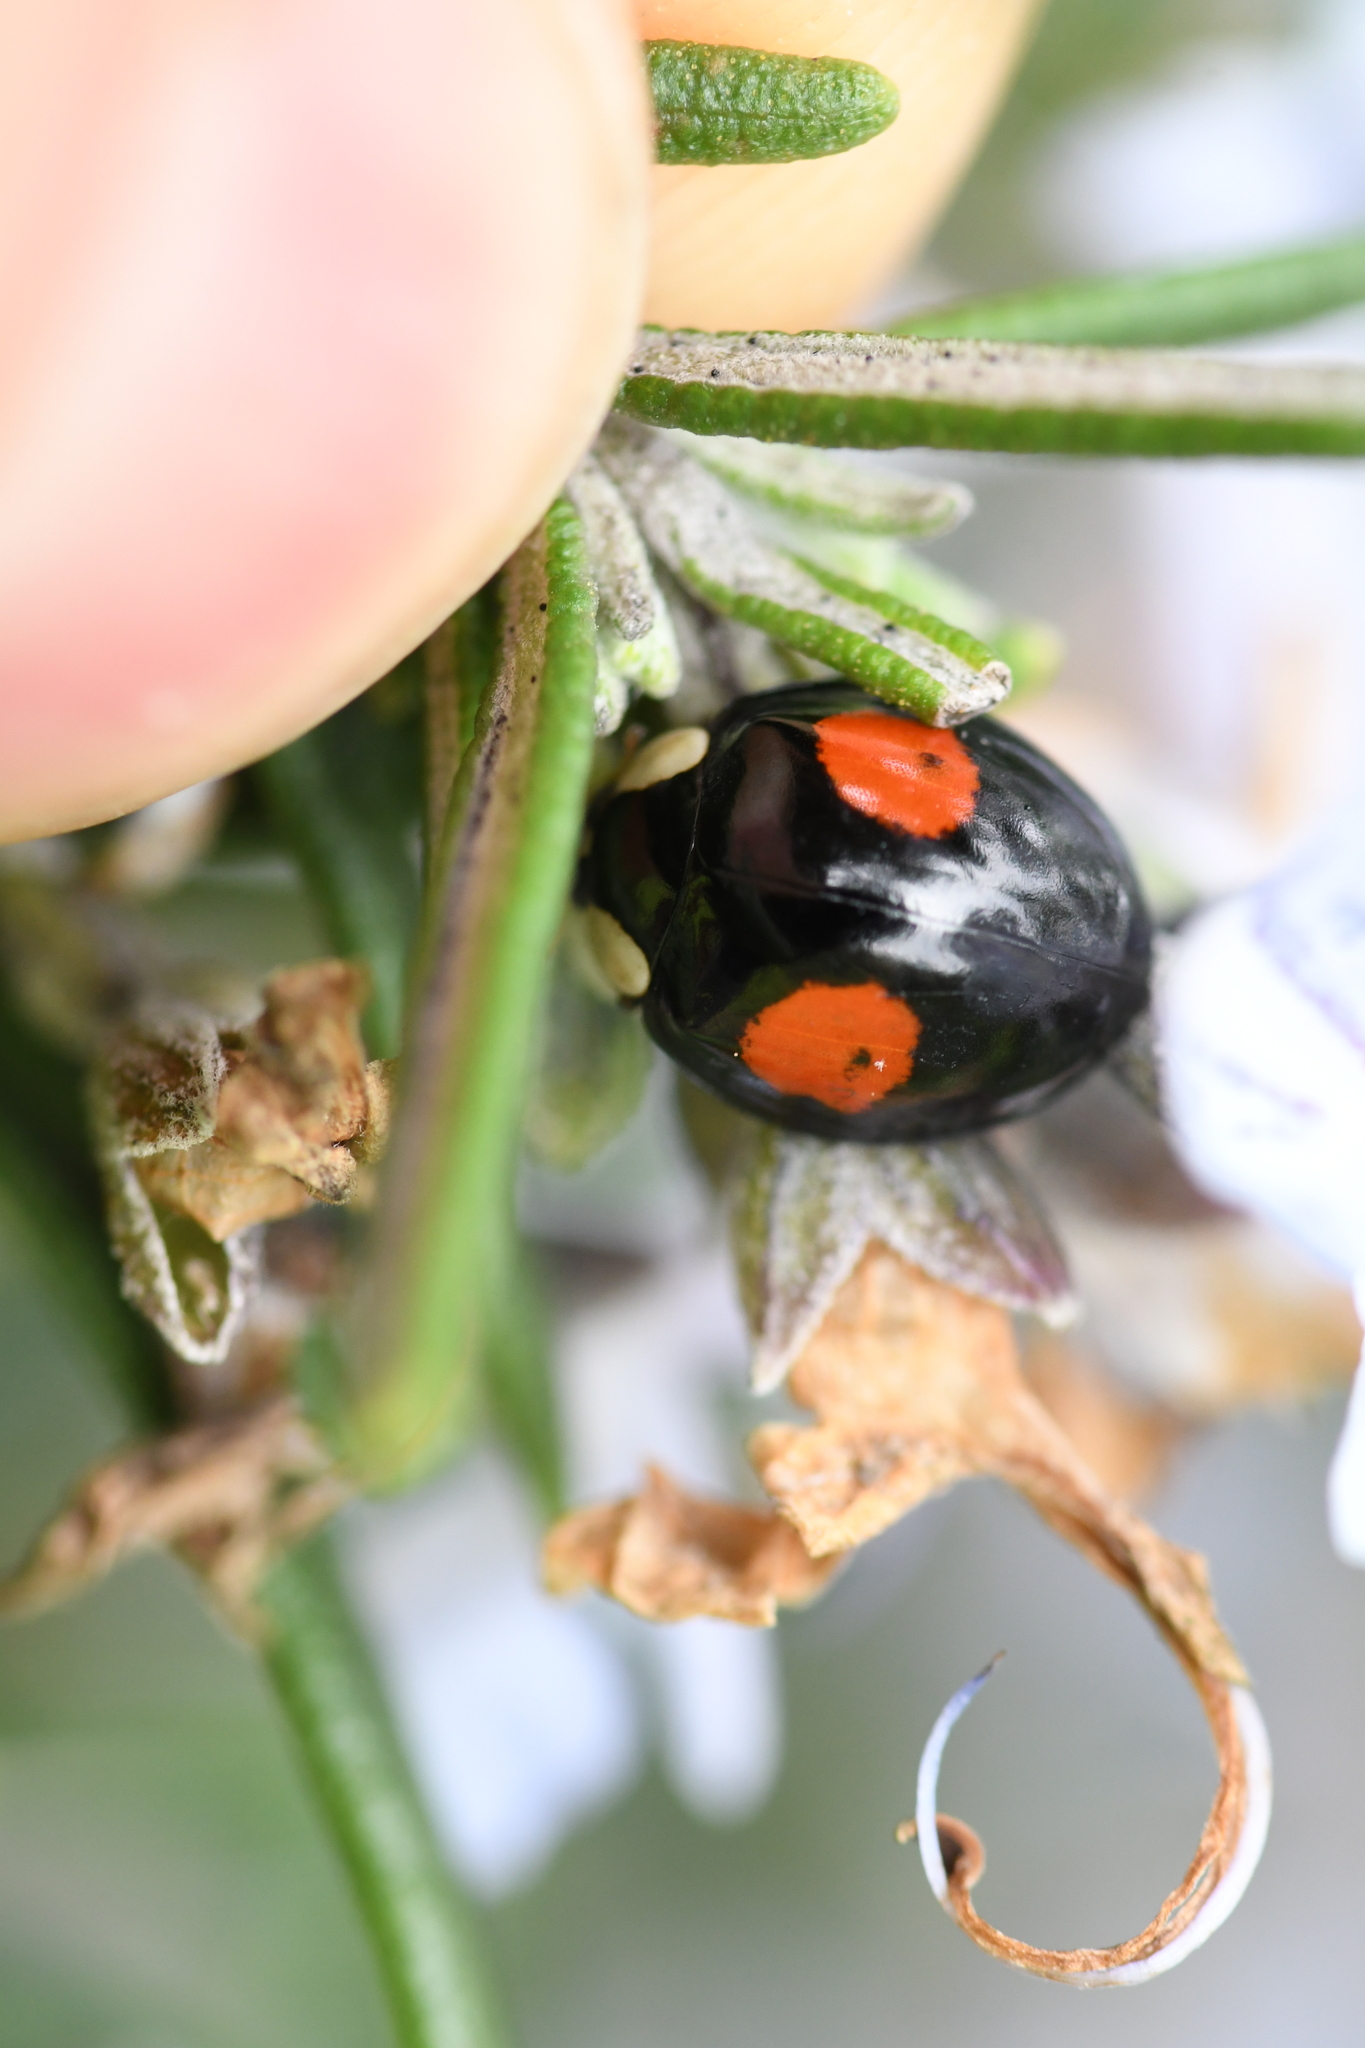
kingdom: Animalia
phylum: Arthropoda
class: Insecta
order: Coleoptera
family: Coccinellidae
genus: Harmonia
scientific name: Harmonia axyridis
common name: Harlequin ladybird
